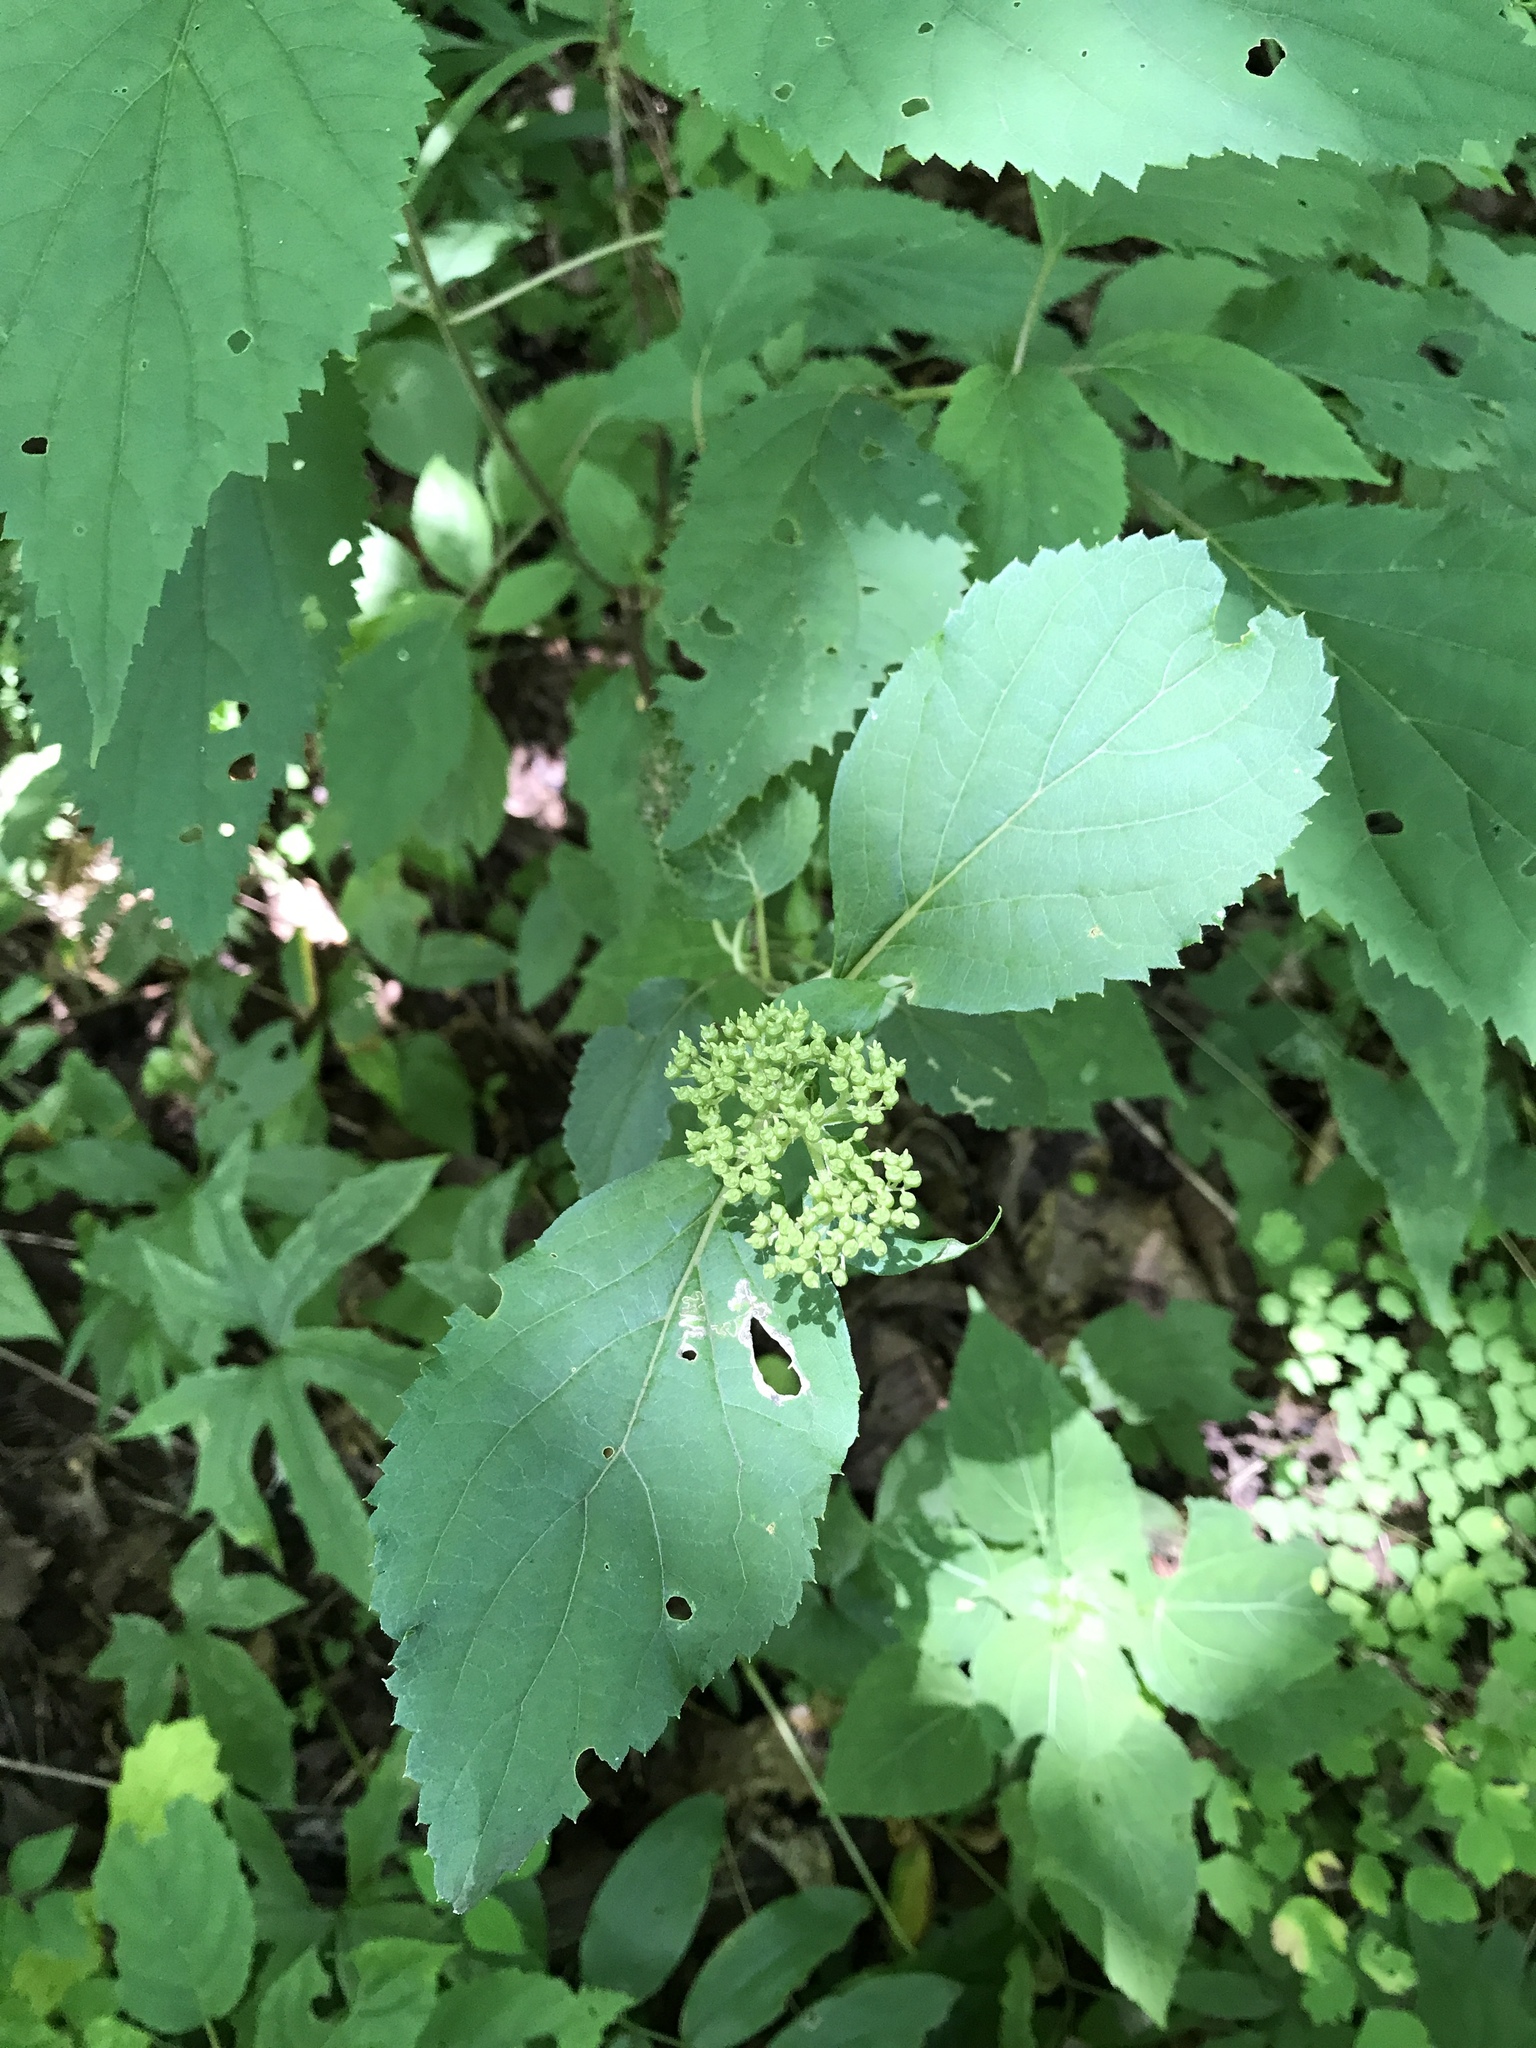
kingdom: Plantae
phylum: Tracheophyta
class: Magnoliopsida
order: Cornales
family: Hydrangeaceae
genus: Hydrangea
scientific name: Hydrangea arborescens
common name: Sevenbark
